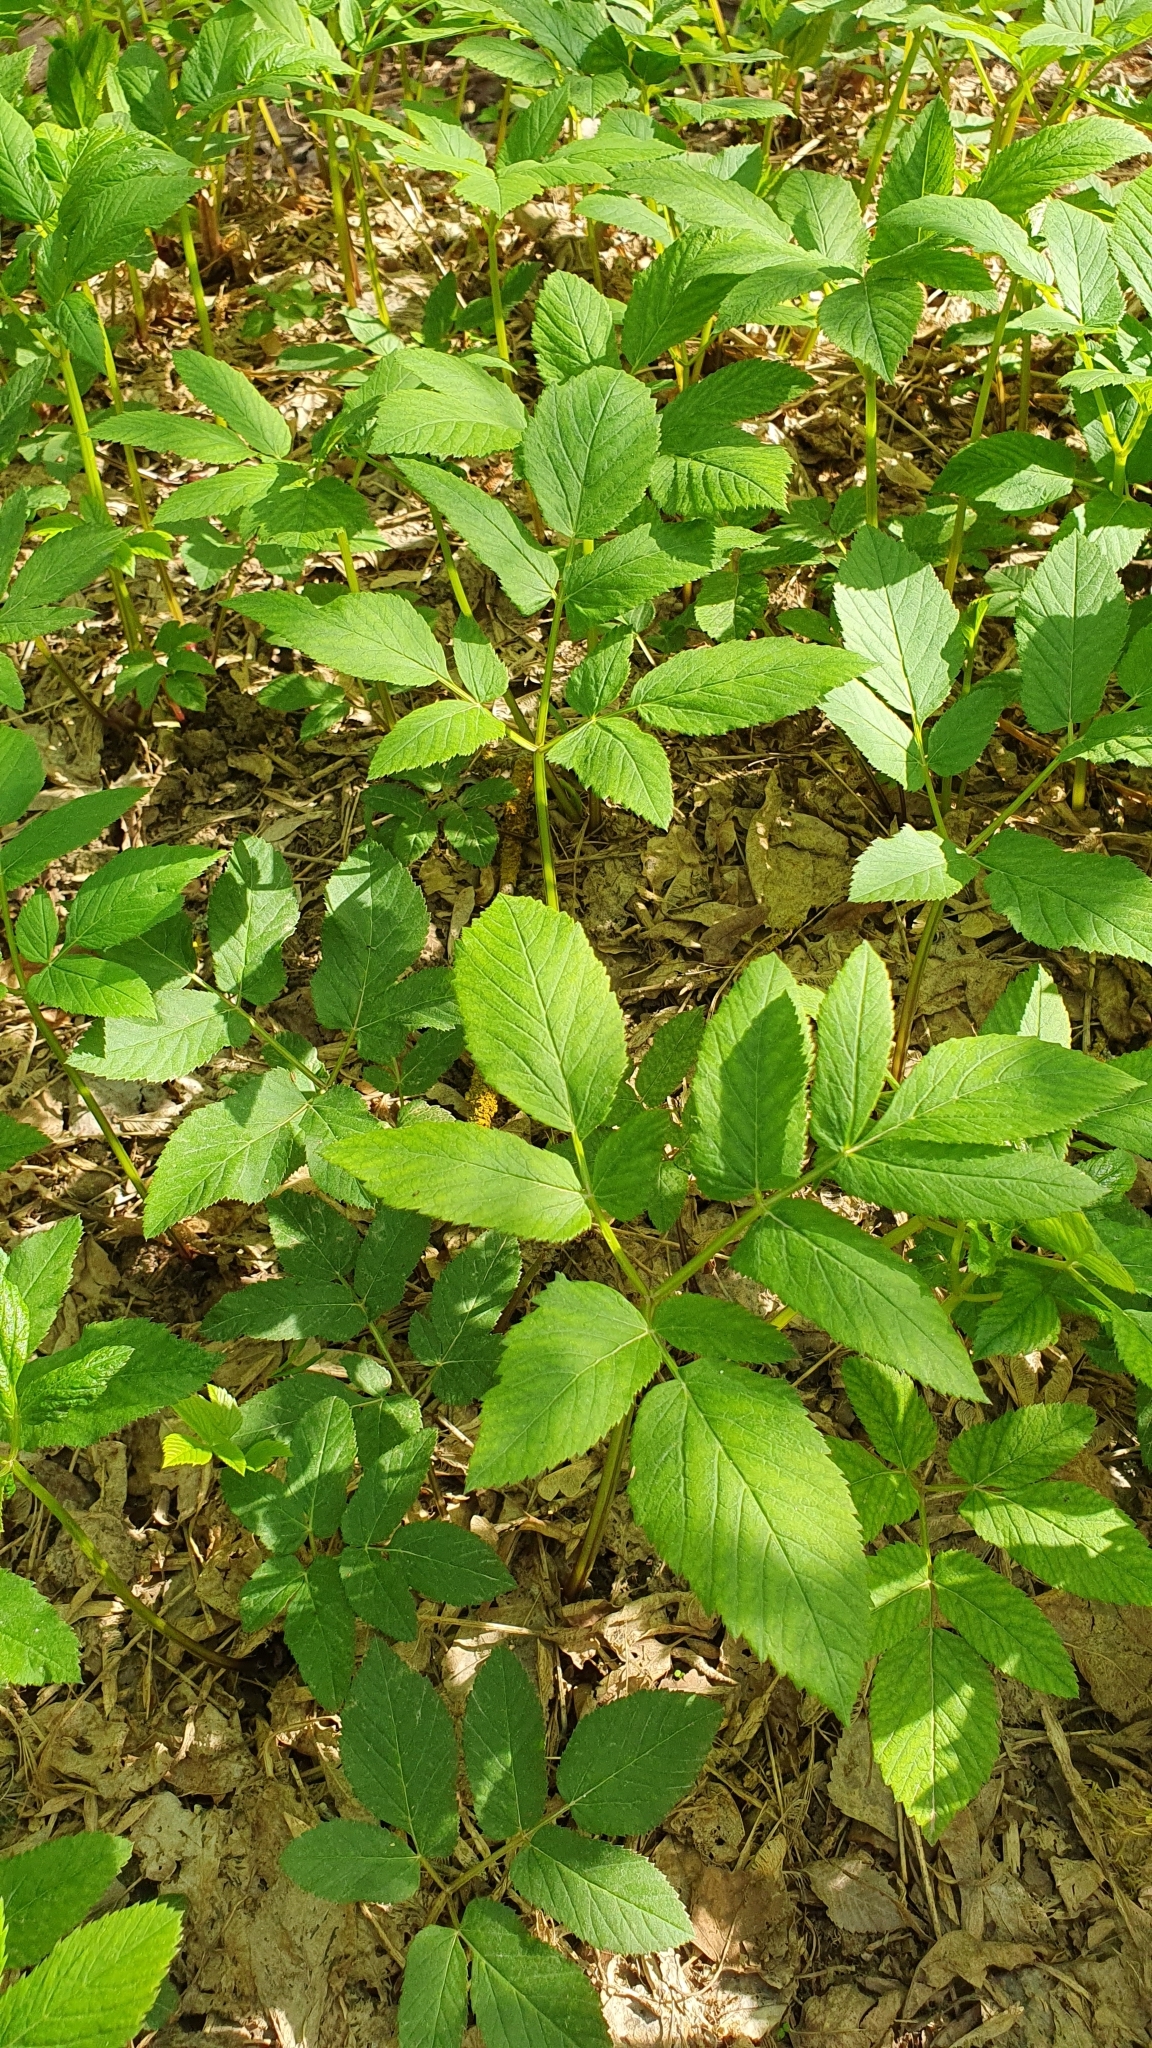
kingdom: Plantae
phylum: Tracheophyta
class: Magnoliopsida
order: Apiales
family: Apiaceae
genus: Aegopodium
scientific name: Aegopodium podagraria
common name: Ground-elder
